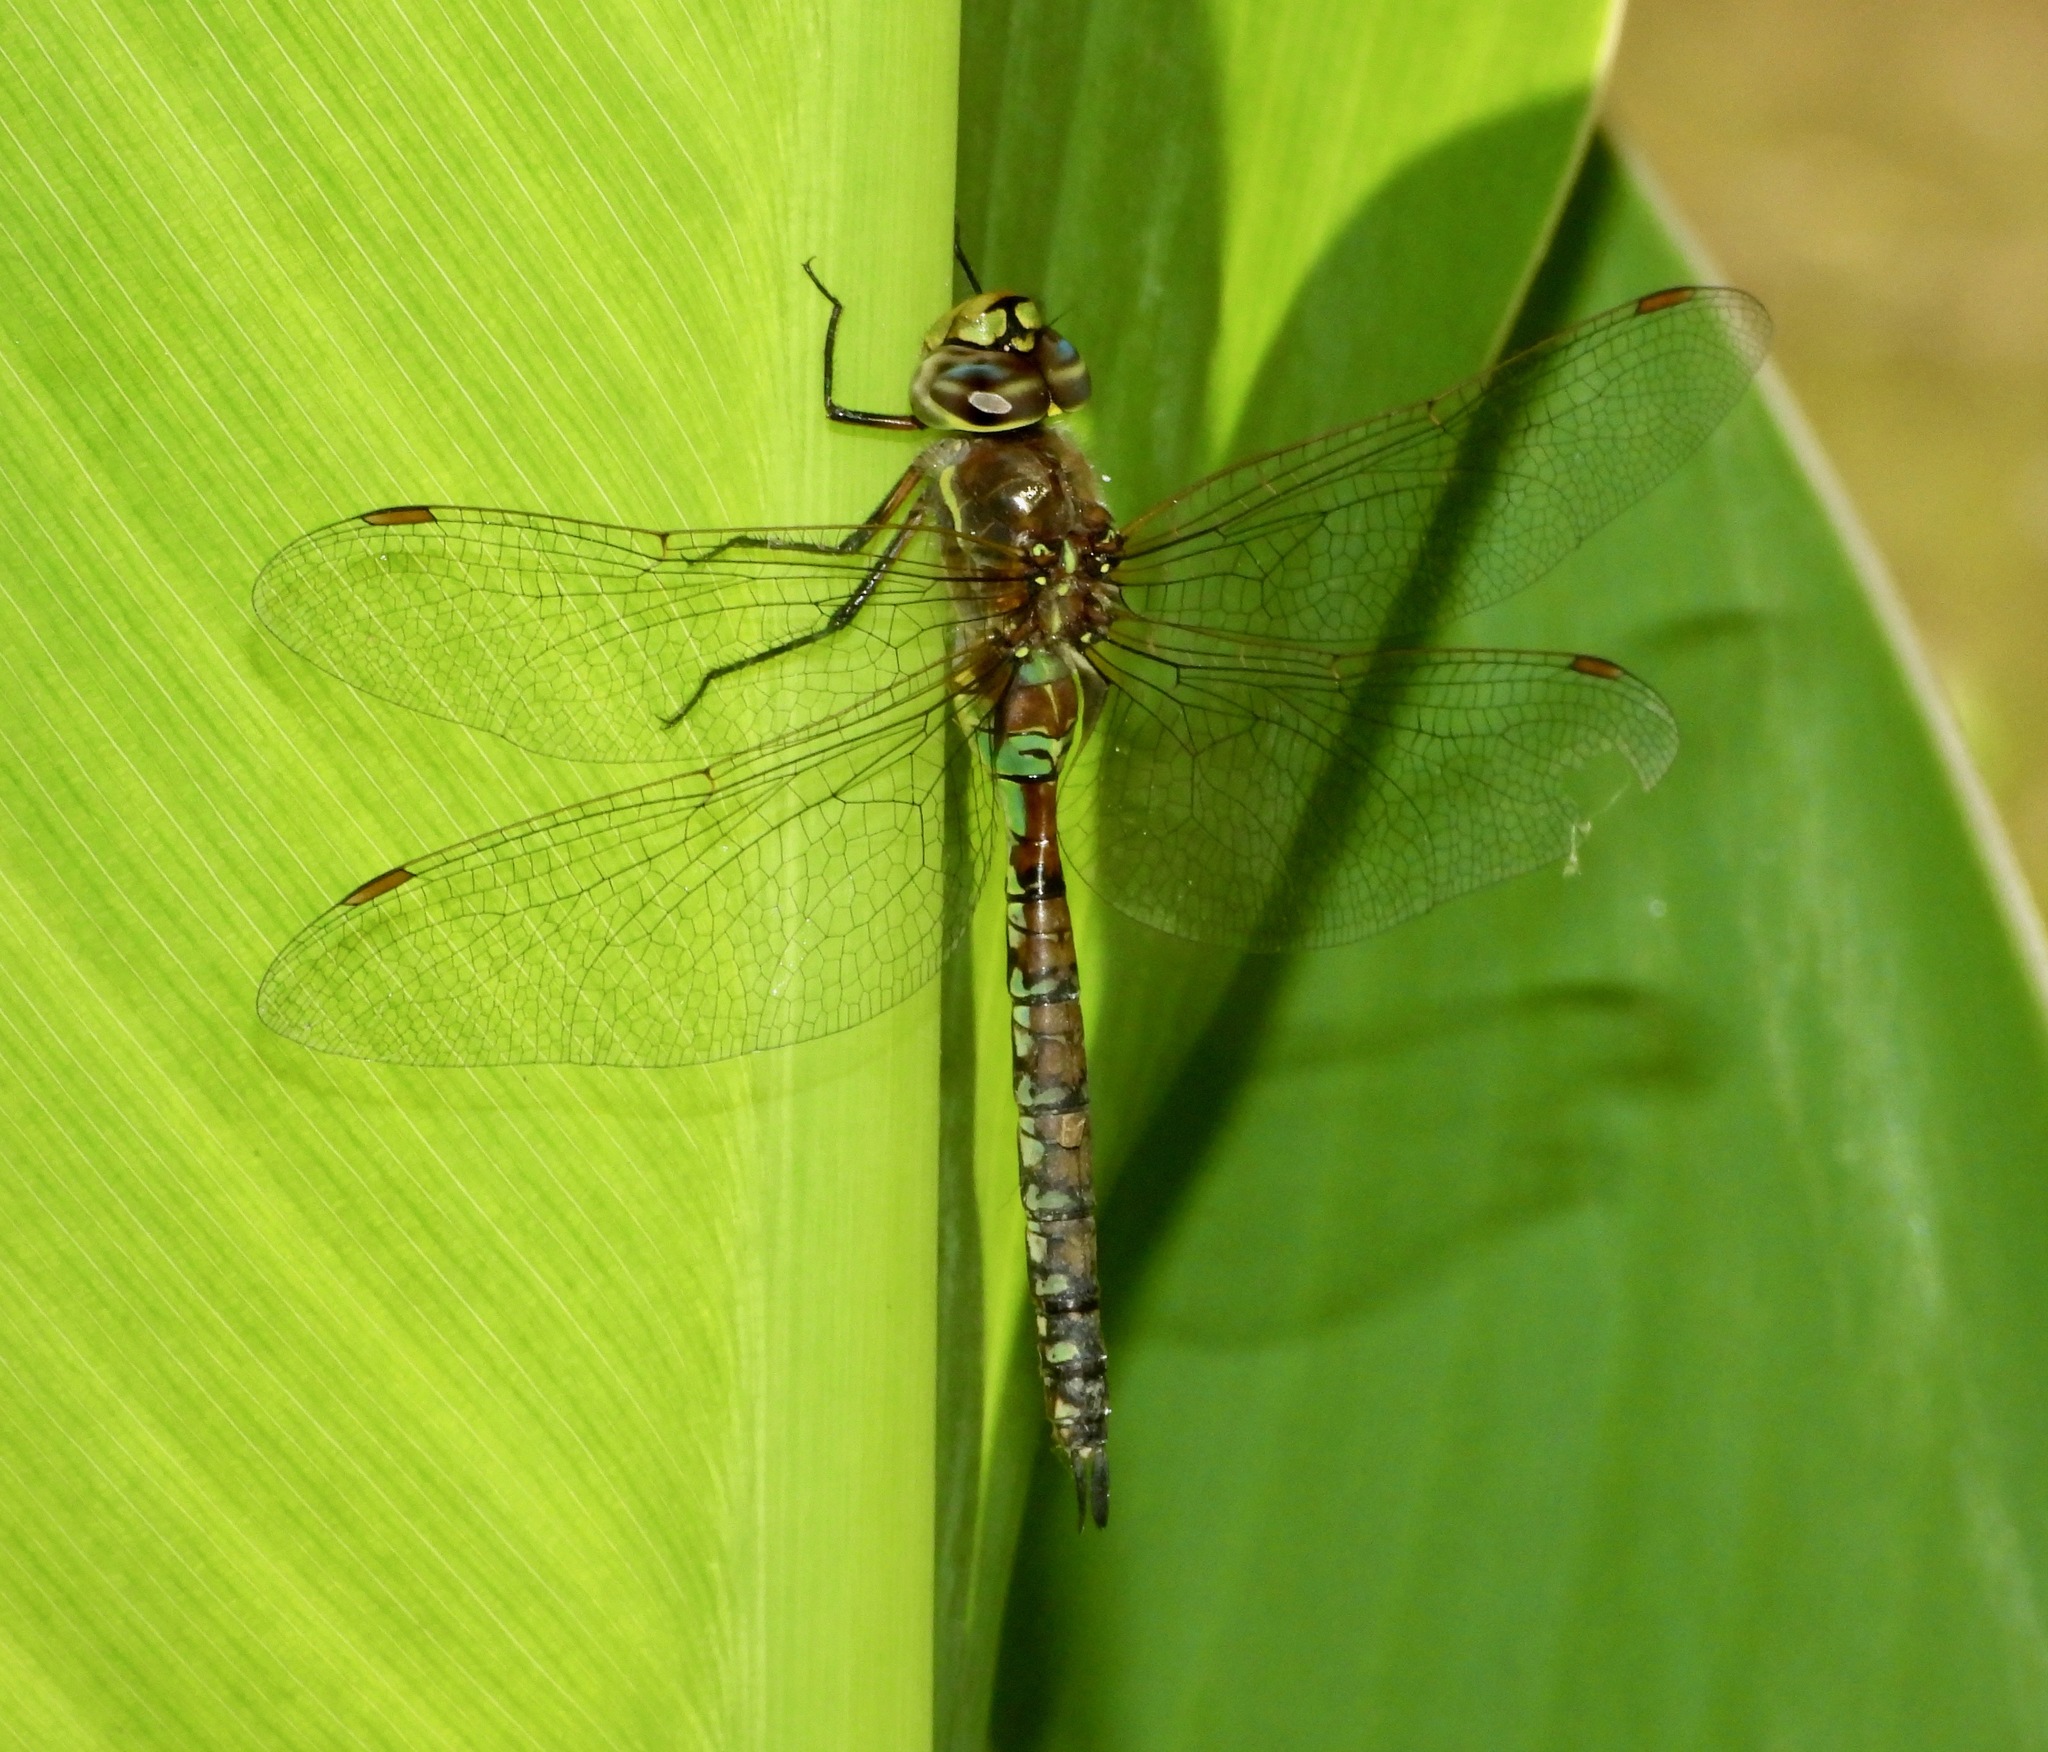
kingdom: Animalia
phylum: Arthropoda
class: Insecta
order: Odonata
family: Aeshnidae
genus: Rhionaeschna
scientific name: Rhionaeschna diffinis
